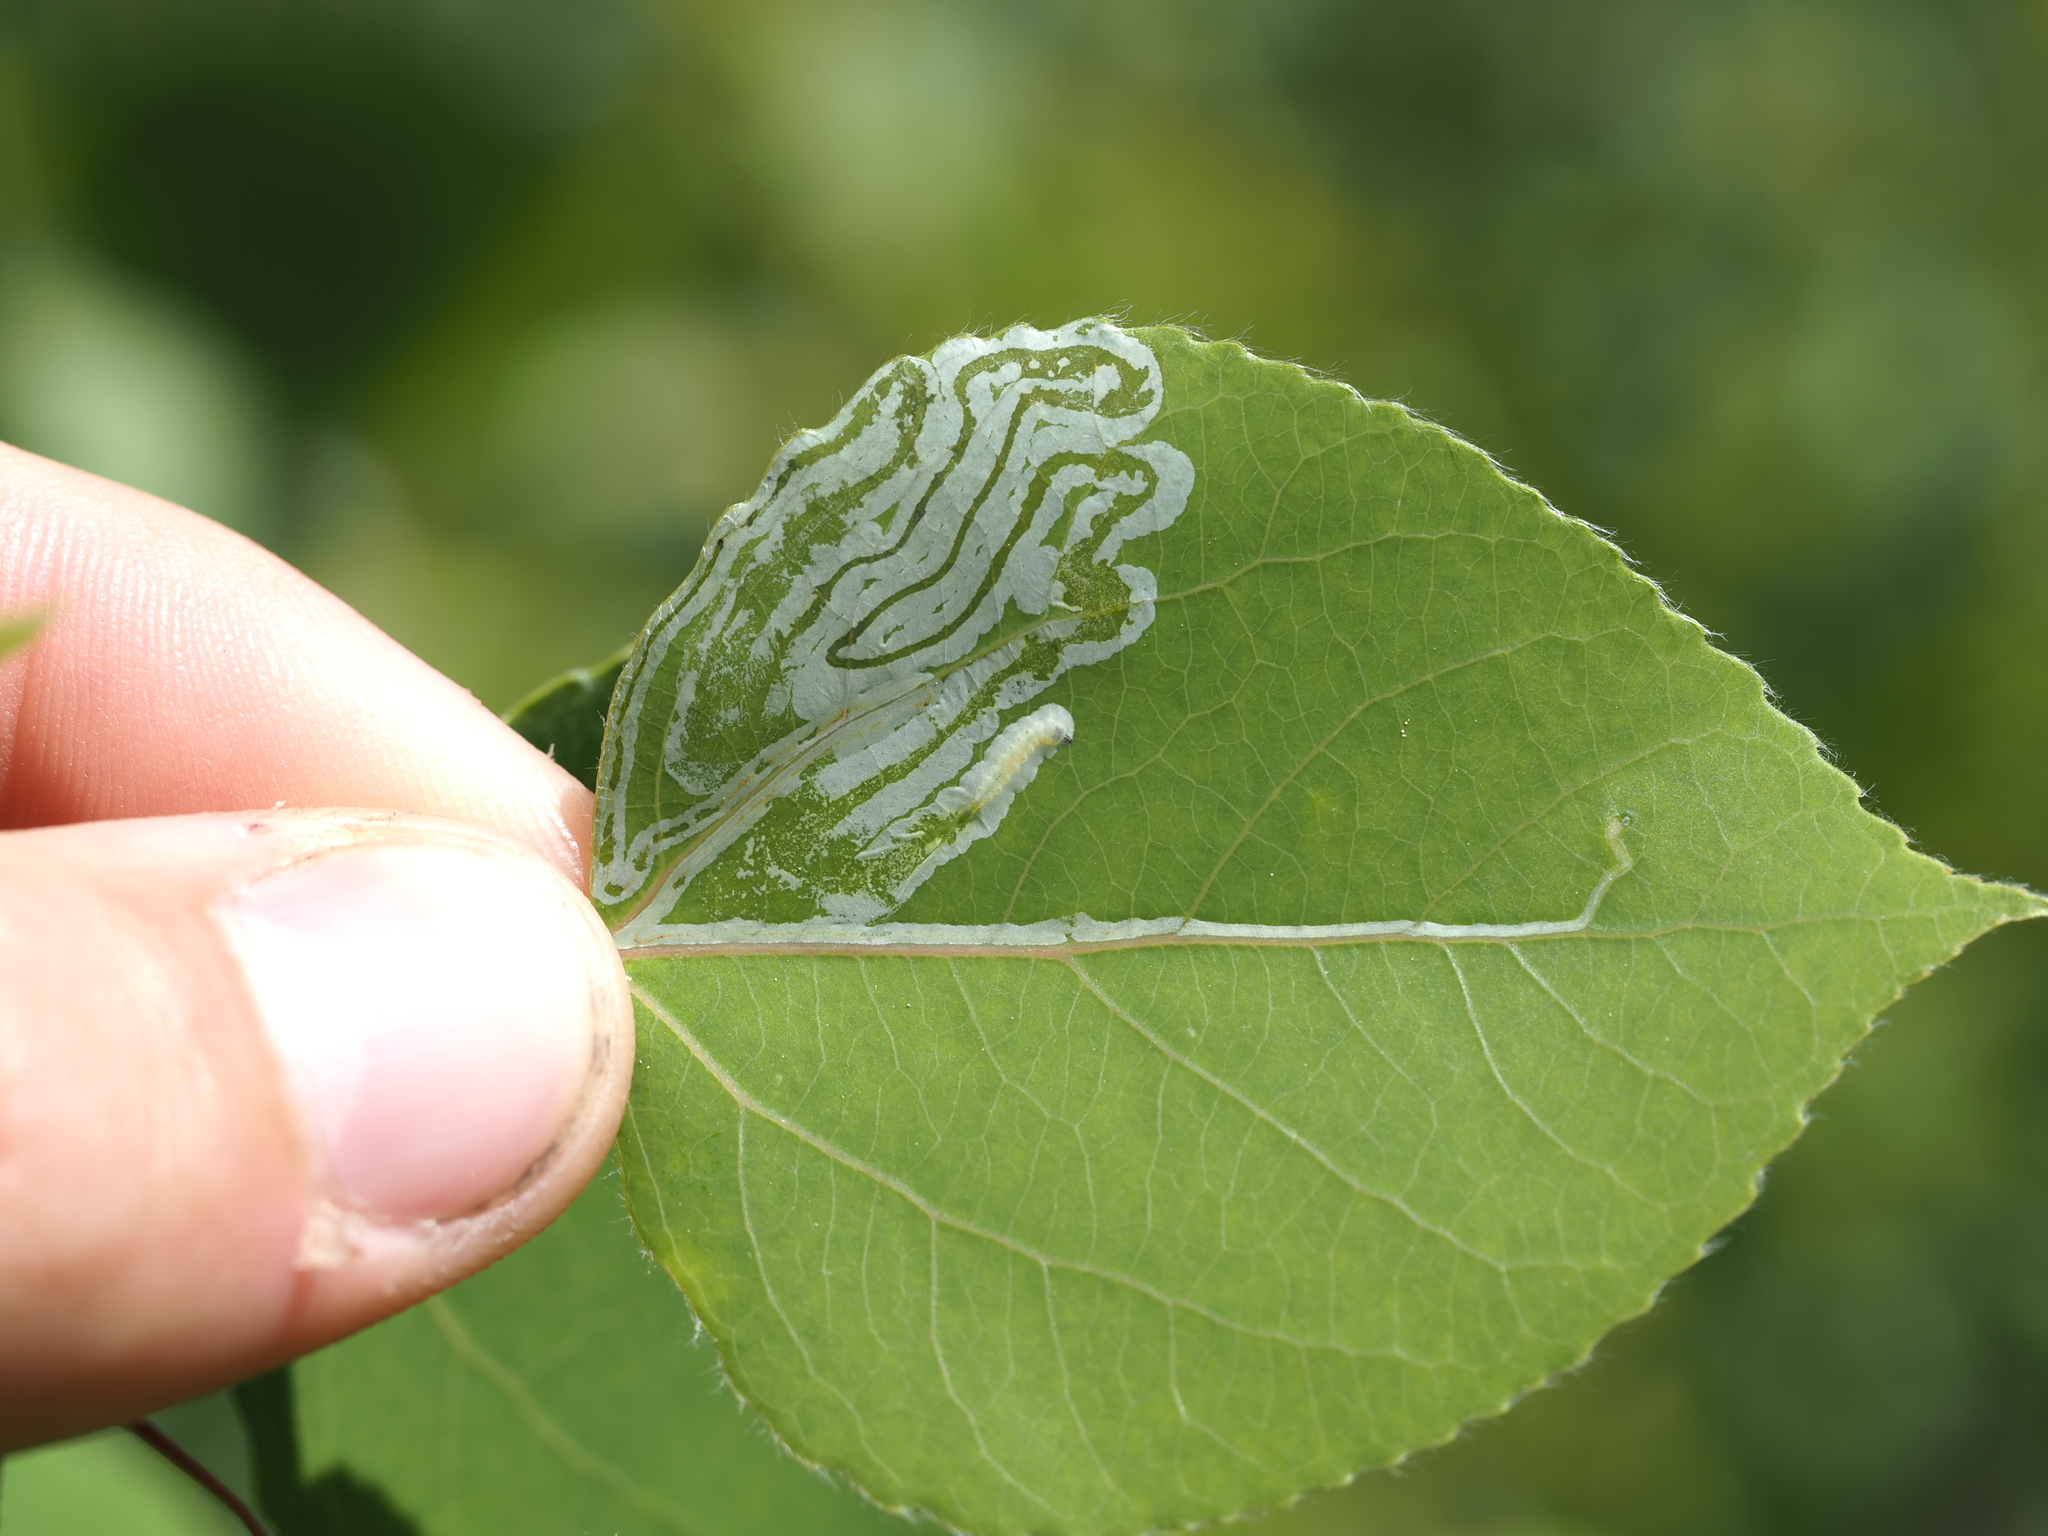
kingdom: Animalia
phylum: Arthropoda
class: Insecta
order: Lepidoptera
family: Gracillariidae
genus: Phyllocnistis
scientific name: Phyllocnistis populiella
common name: Aspen serpentine leafminer moth
